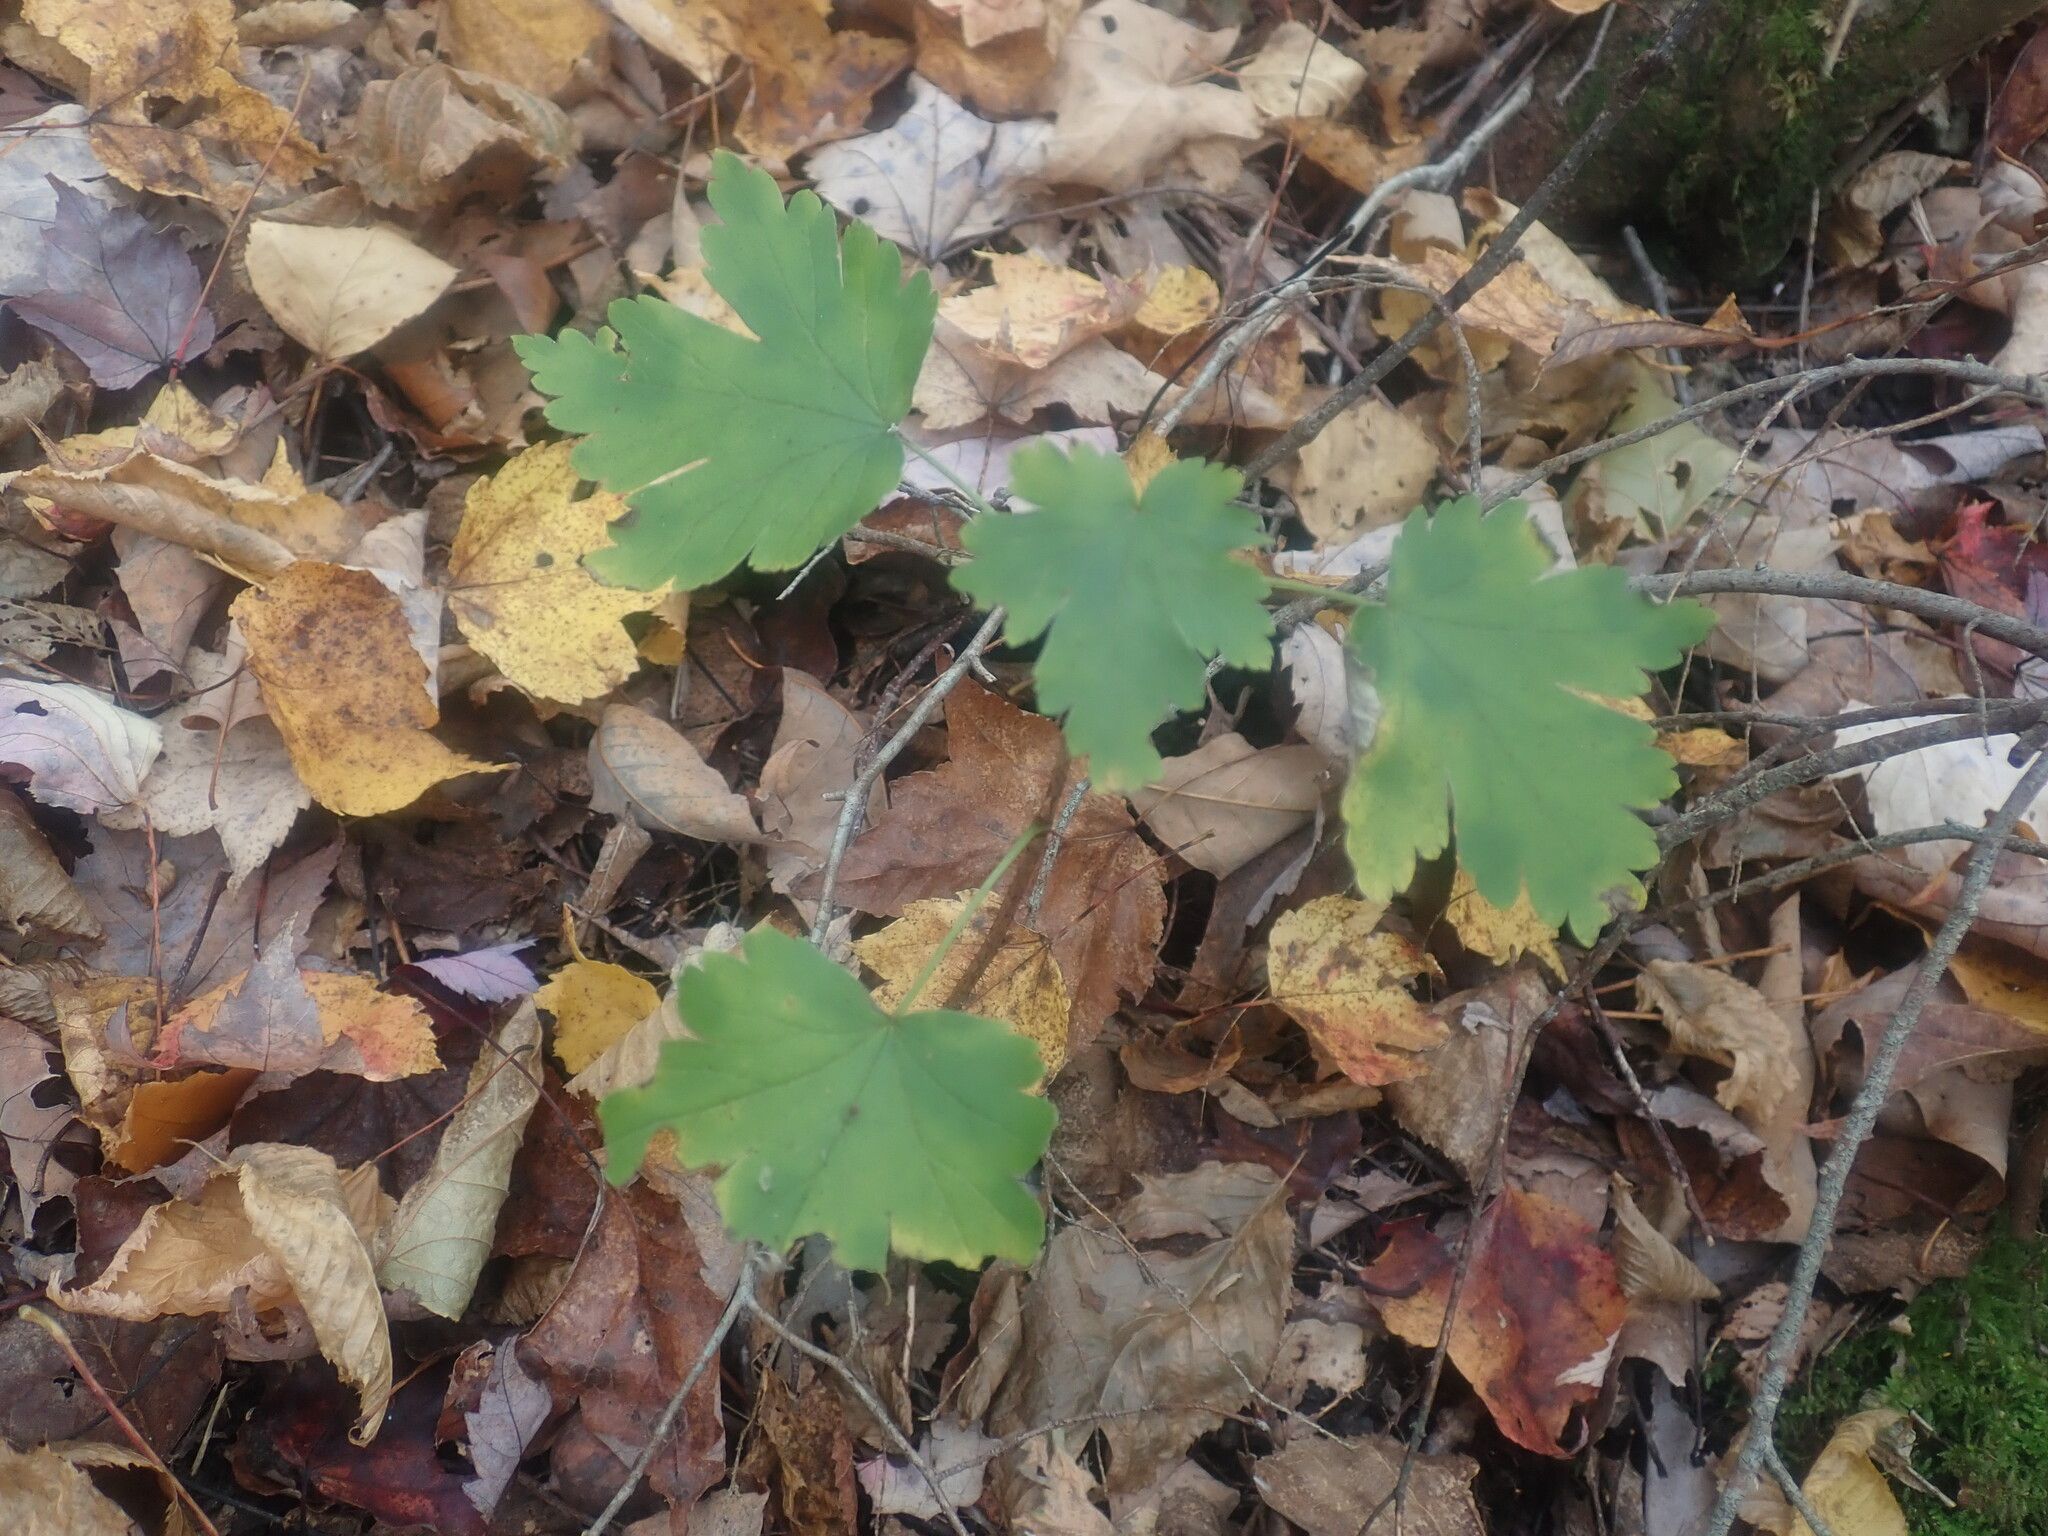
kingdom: Plantae
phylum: Tracheophyta
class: Magnoliopsida
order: Saxifragales
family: Grossulariaceae
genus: Ribes
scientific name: Ribes
